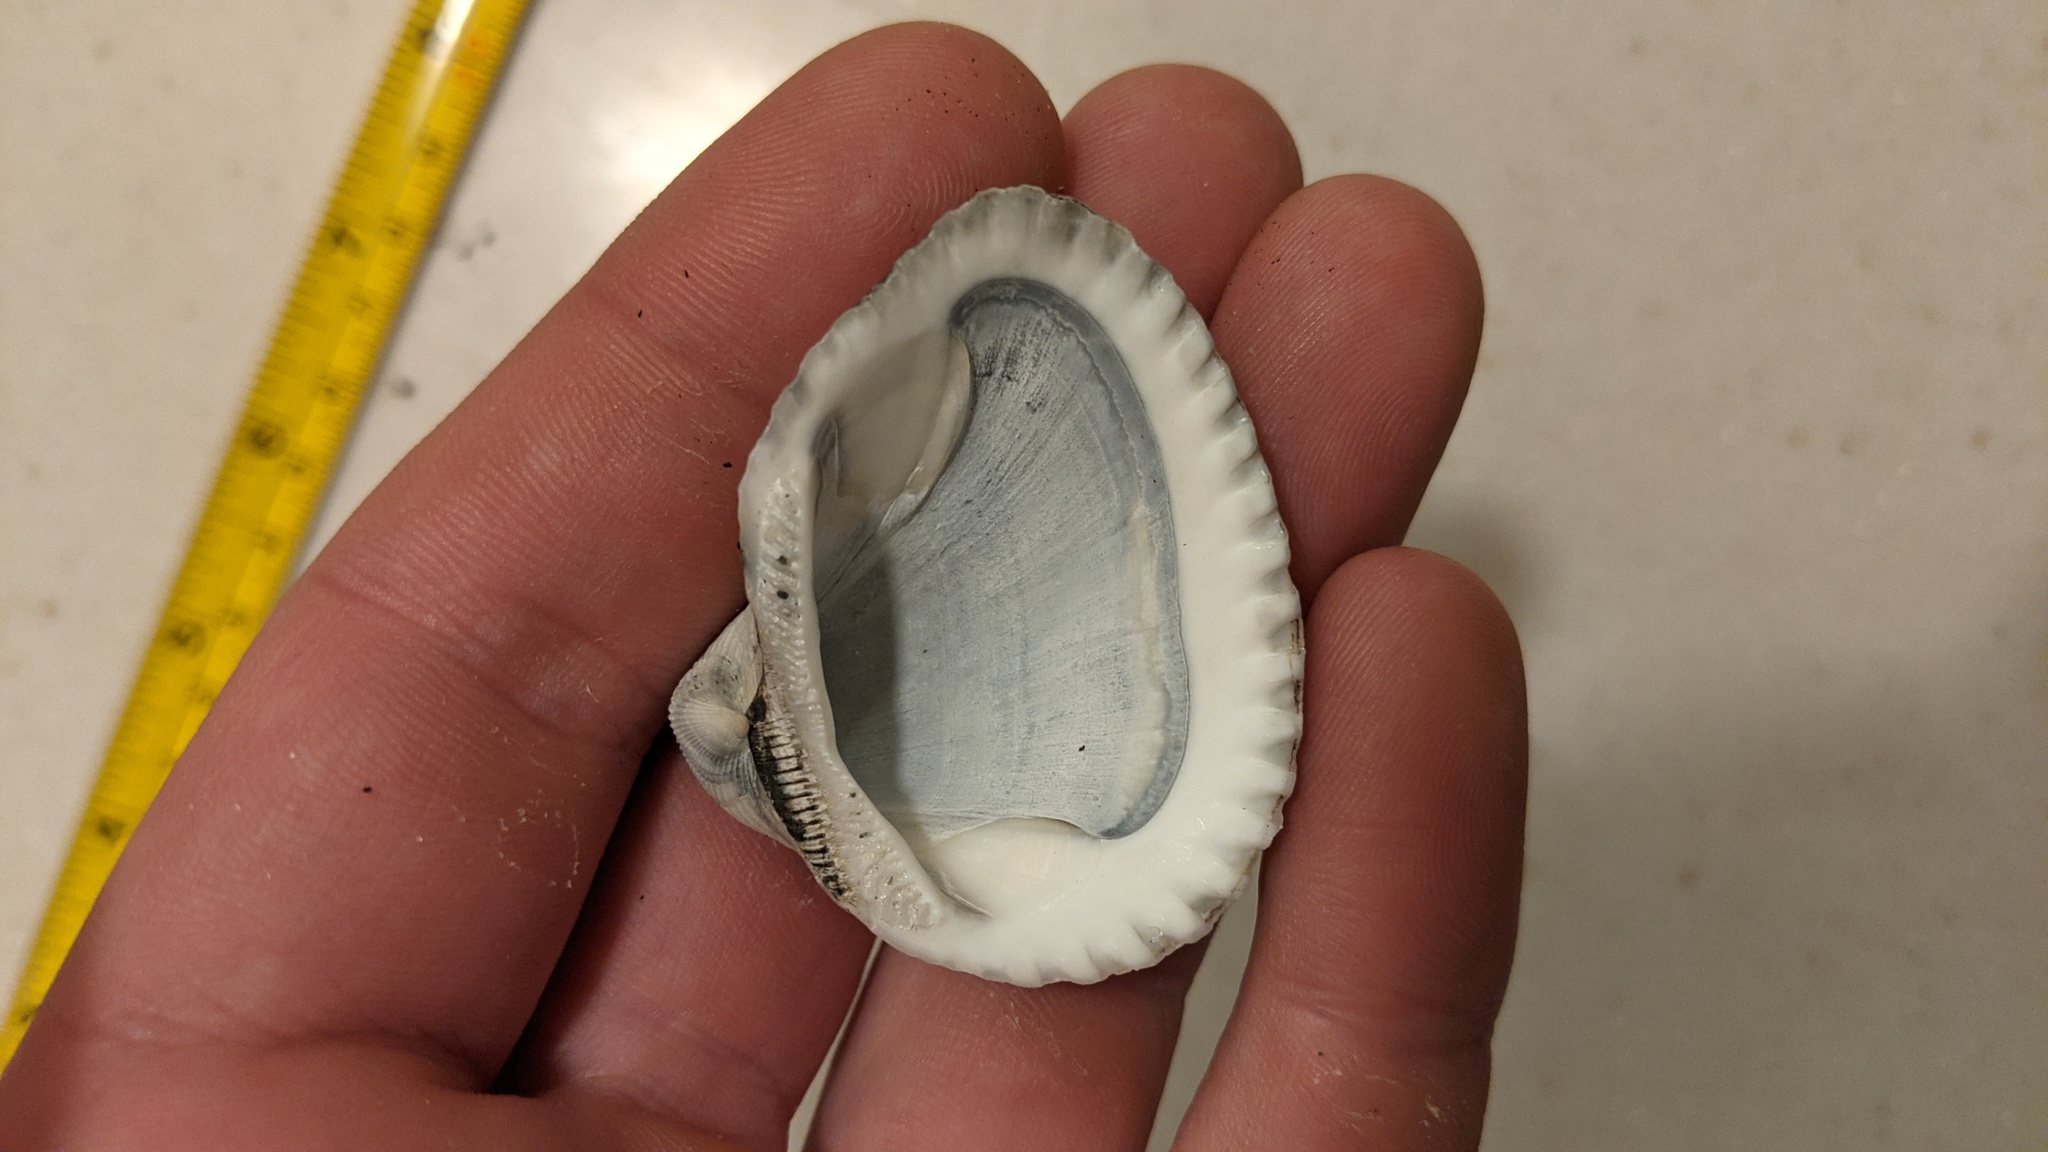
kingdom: Animalia
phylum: Mollusca
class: Bivalvia
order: Arcida
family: Noetiidae
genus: Noetia
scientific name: Noetia ponderosa
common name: Ponderous ark
